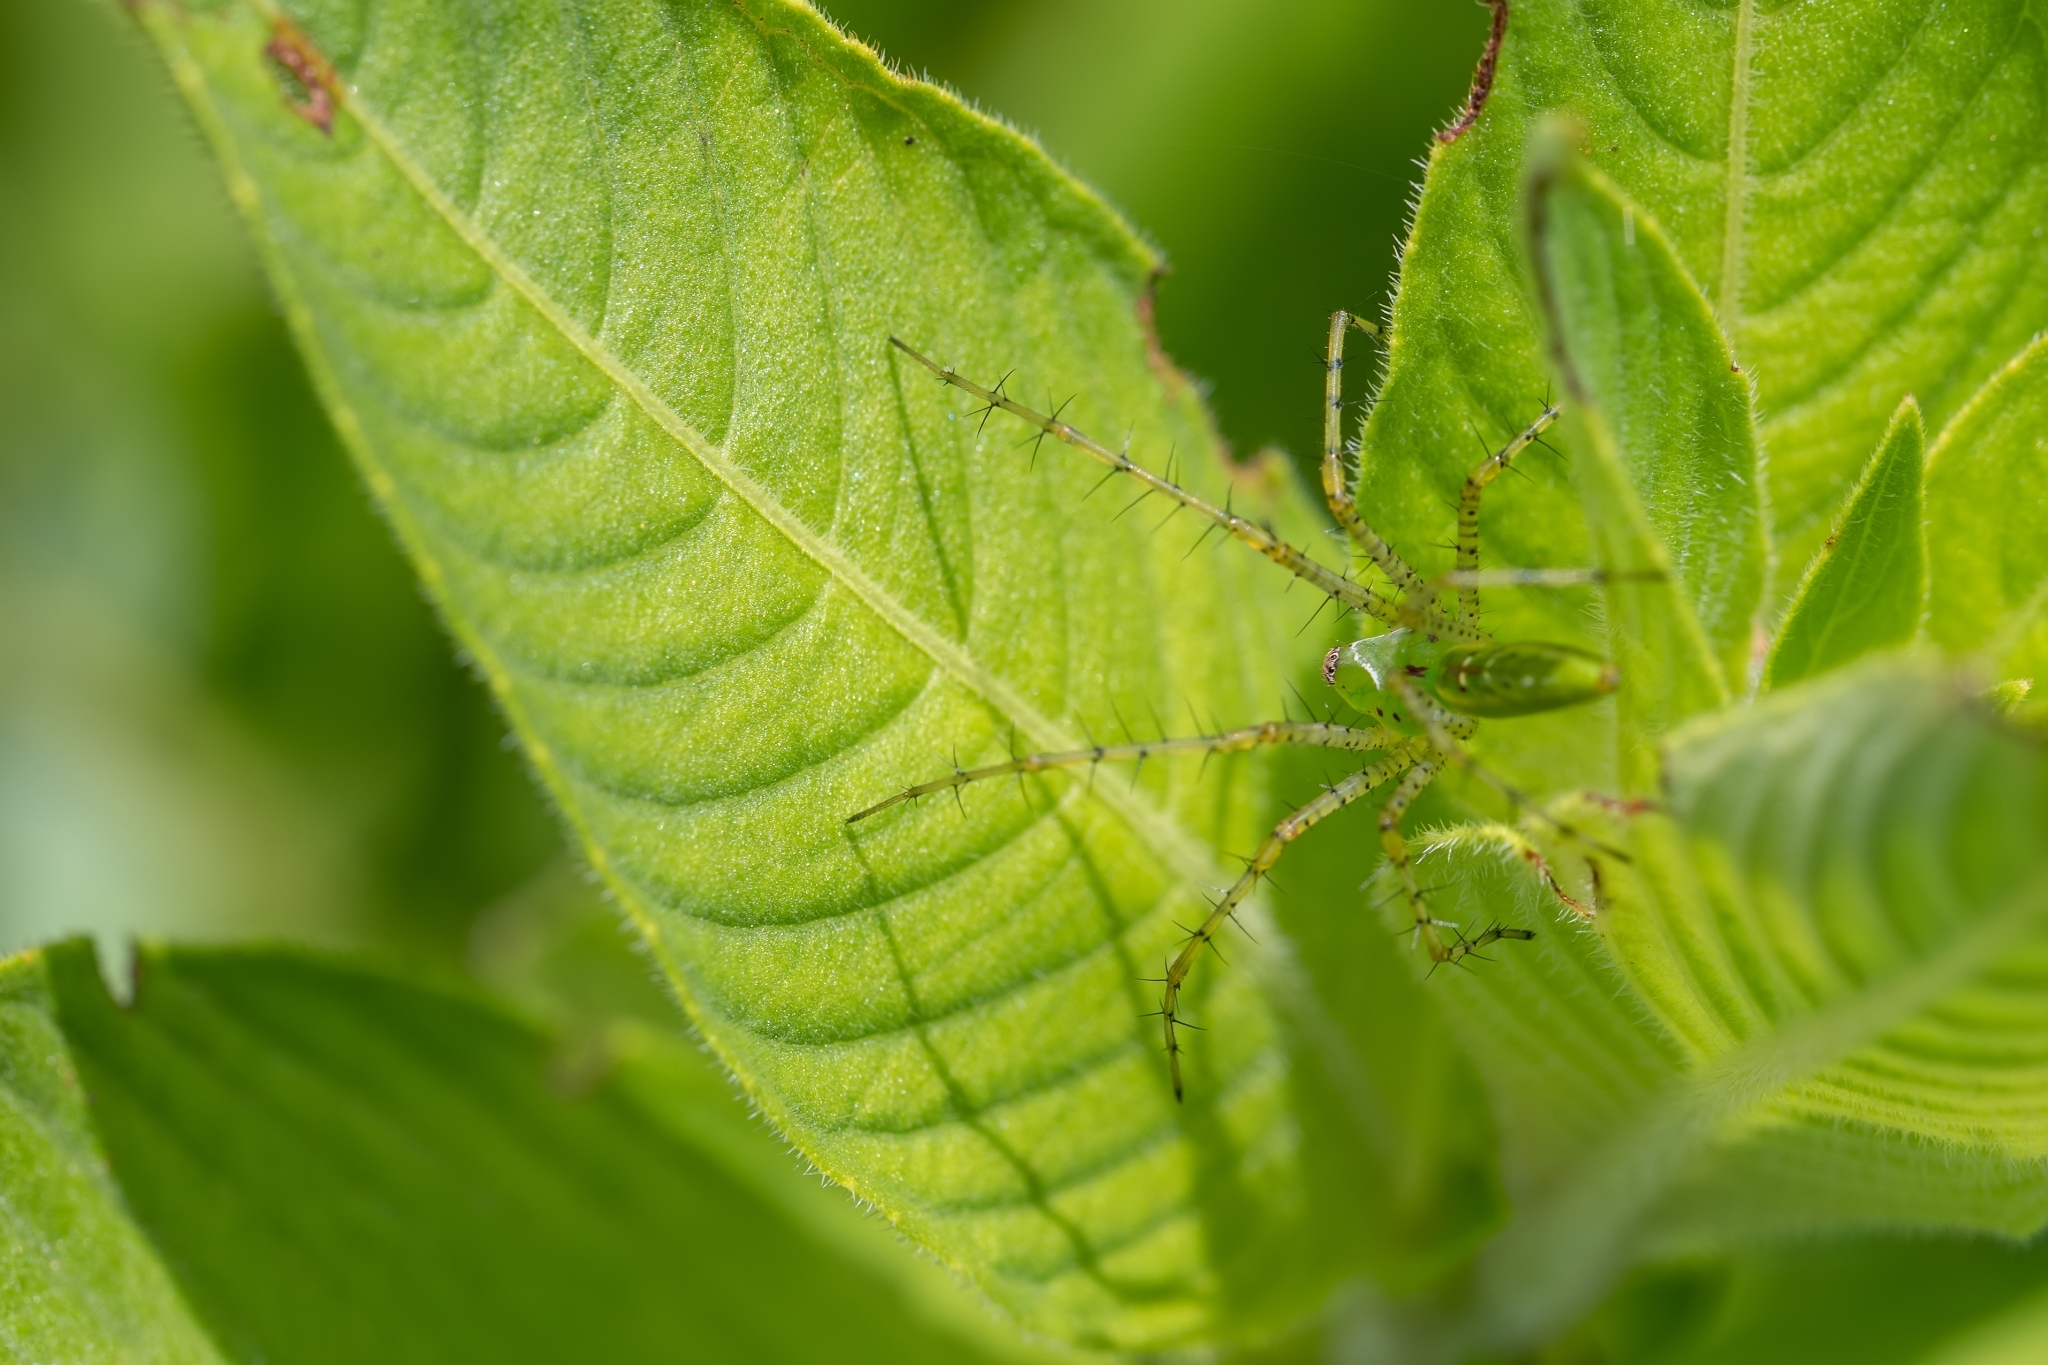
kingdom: Animalia
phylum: Arthropoda
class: Arachnida
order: Araneae
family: Oxyopidae
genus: Peucetia
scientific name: Peucetia viridans
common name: Lynx spiders
